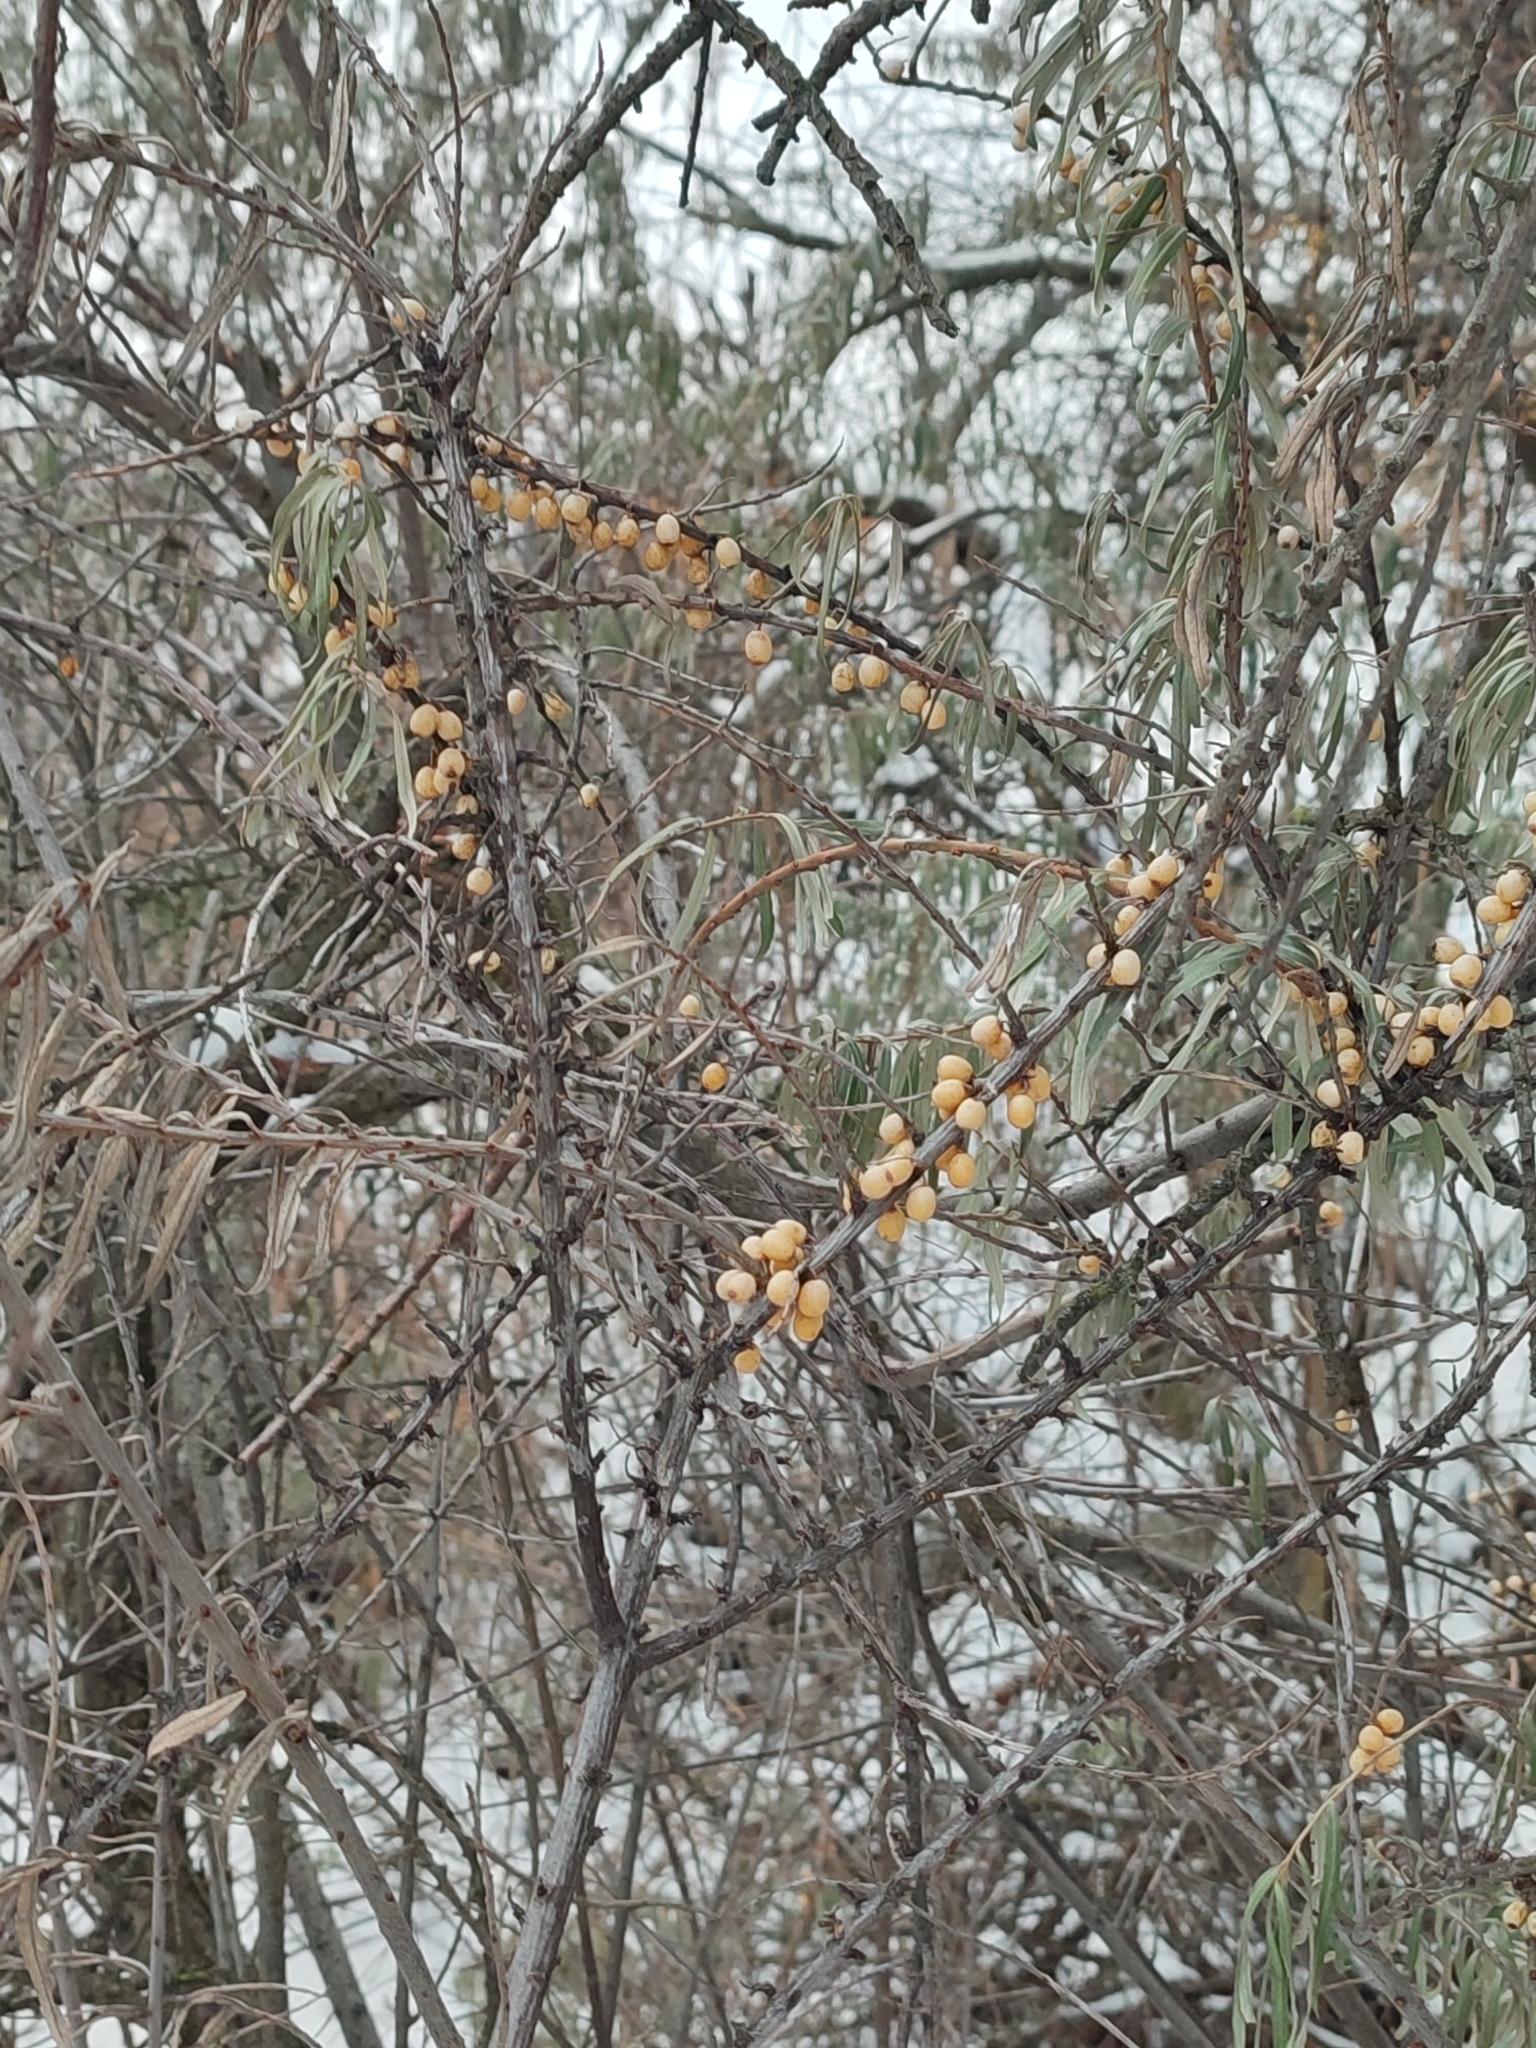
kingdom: Plantae
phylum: Tracheophyta
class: Magnoliopsida
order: Rosales
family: Elaeagnaceae
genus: Hippophae
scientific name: Hippophae rhamnoides
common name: Sea-buckthorn
